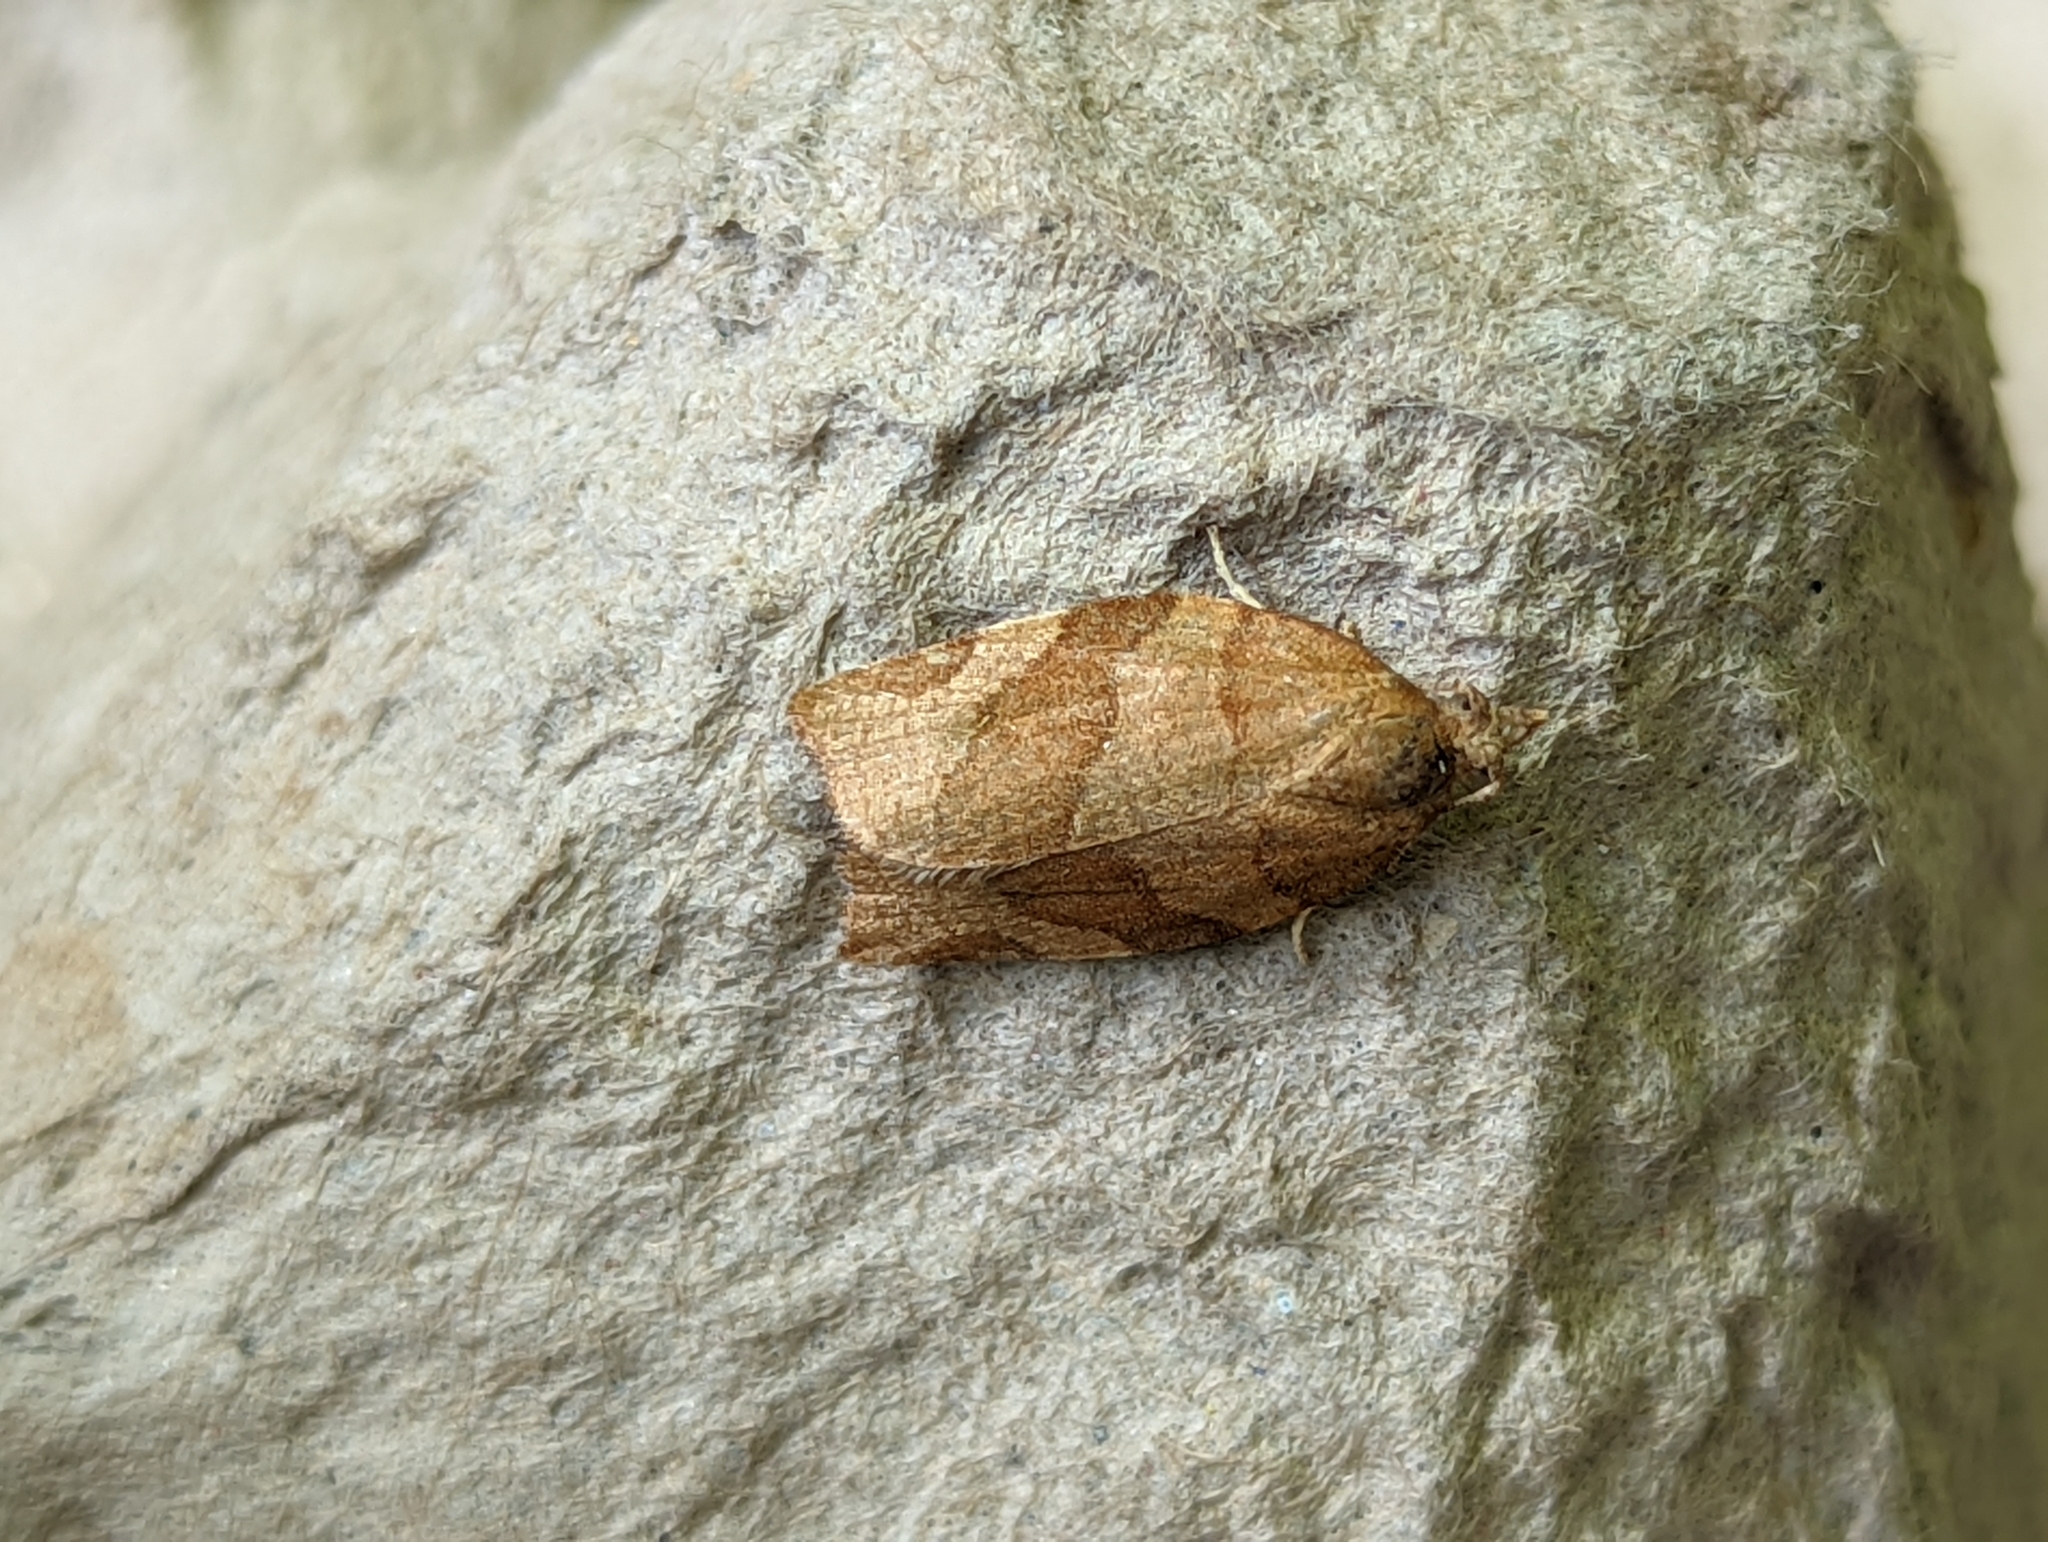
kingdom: Animalia
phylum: Arthropoda
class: Insecta
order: Lepidoptera
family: Tortricidae
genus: Pandemis
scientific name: Pandemis cerasana
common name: Barred fruit-tree tortrix
